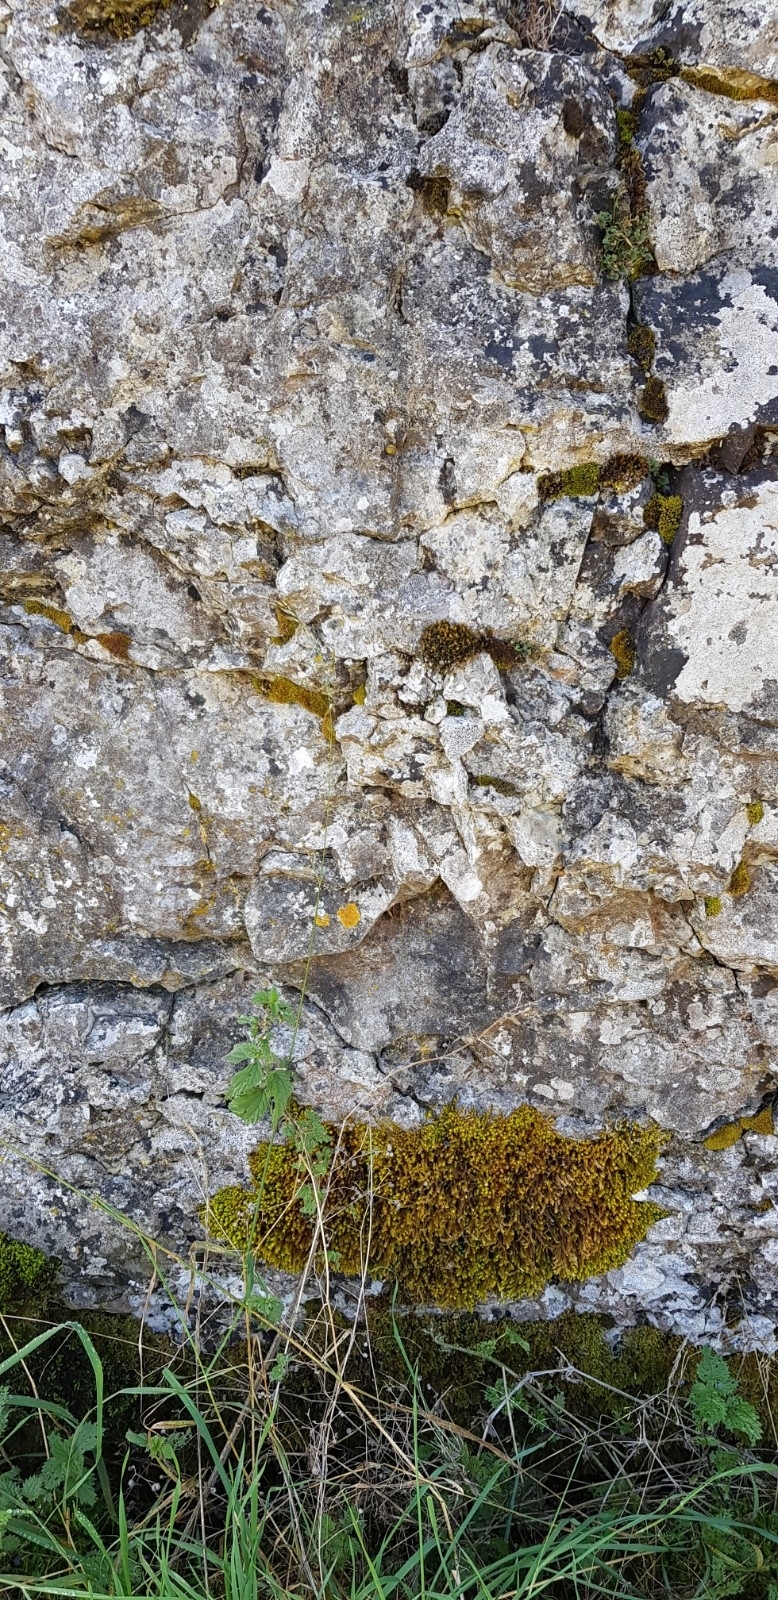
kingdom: Plantae
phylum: Bryophyta
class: Bryopsida
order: Hypnales
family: Anomodontaceae
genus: Anomodon
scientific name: Anomodon viticulosus
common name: Tall anomodon
